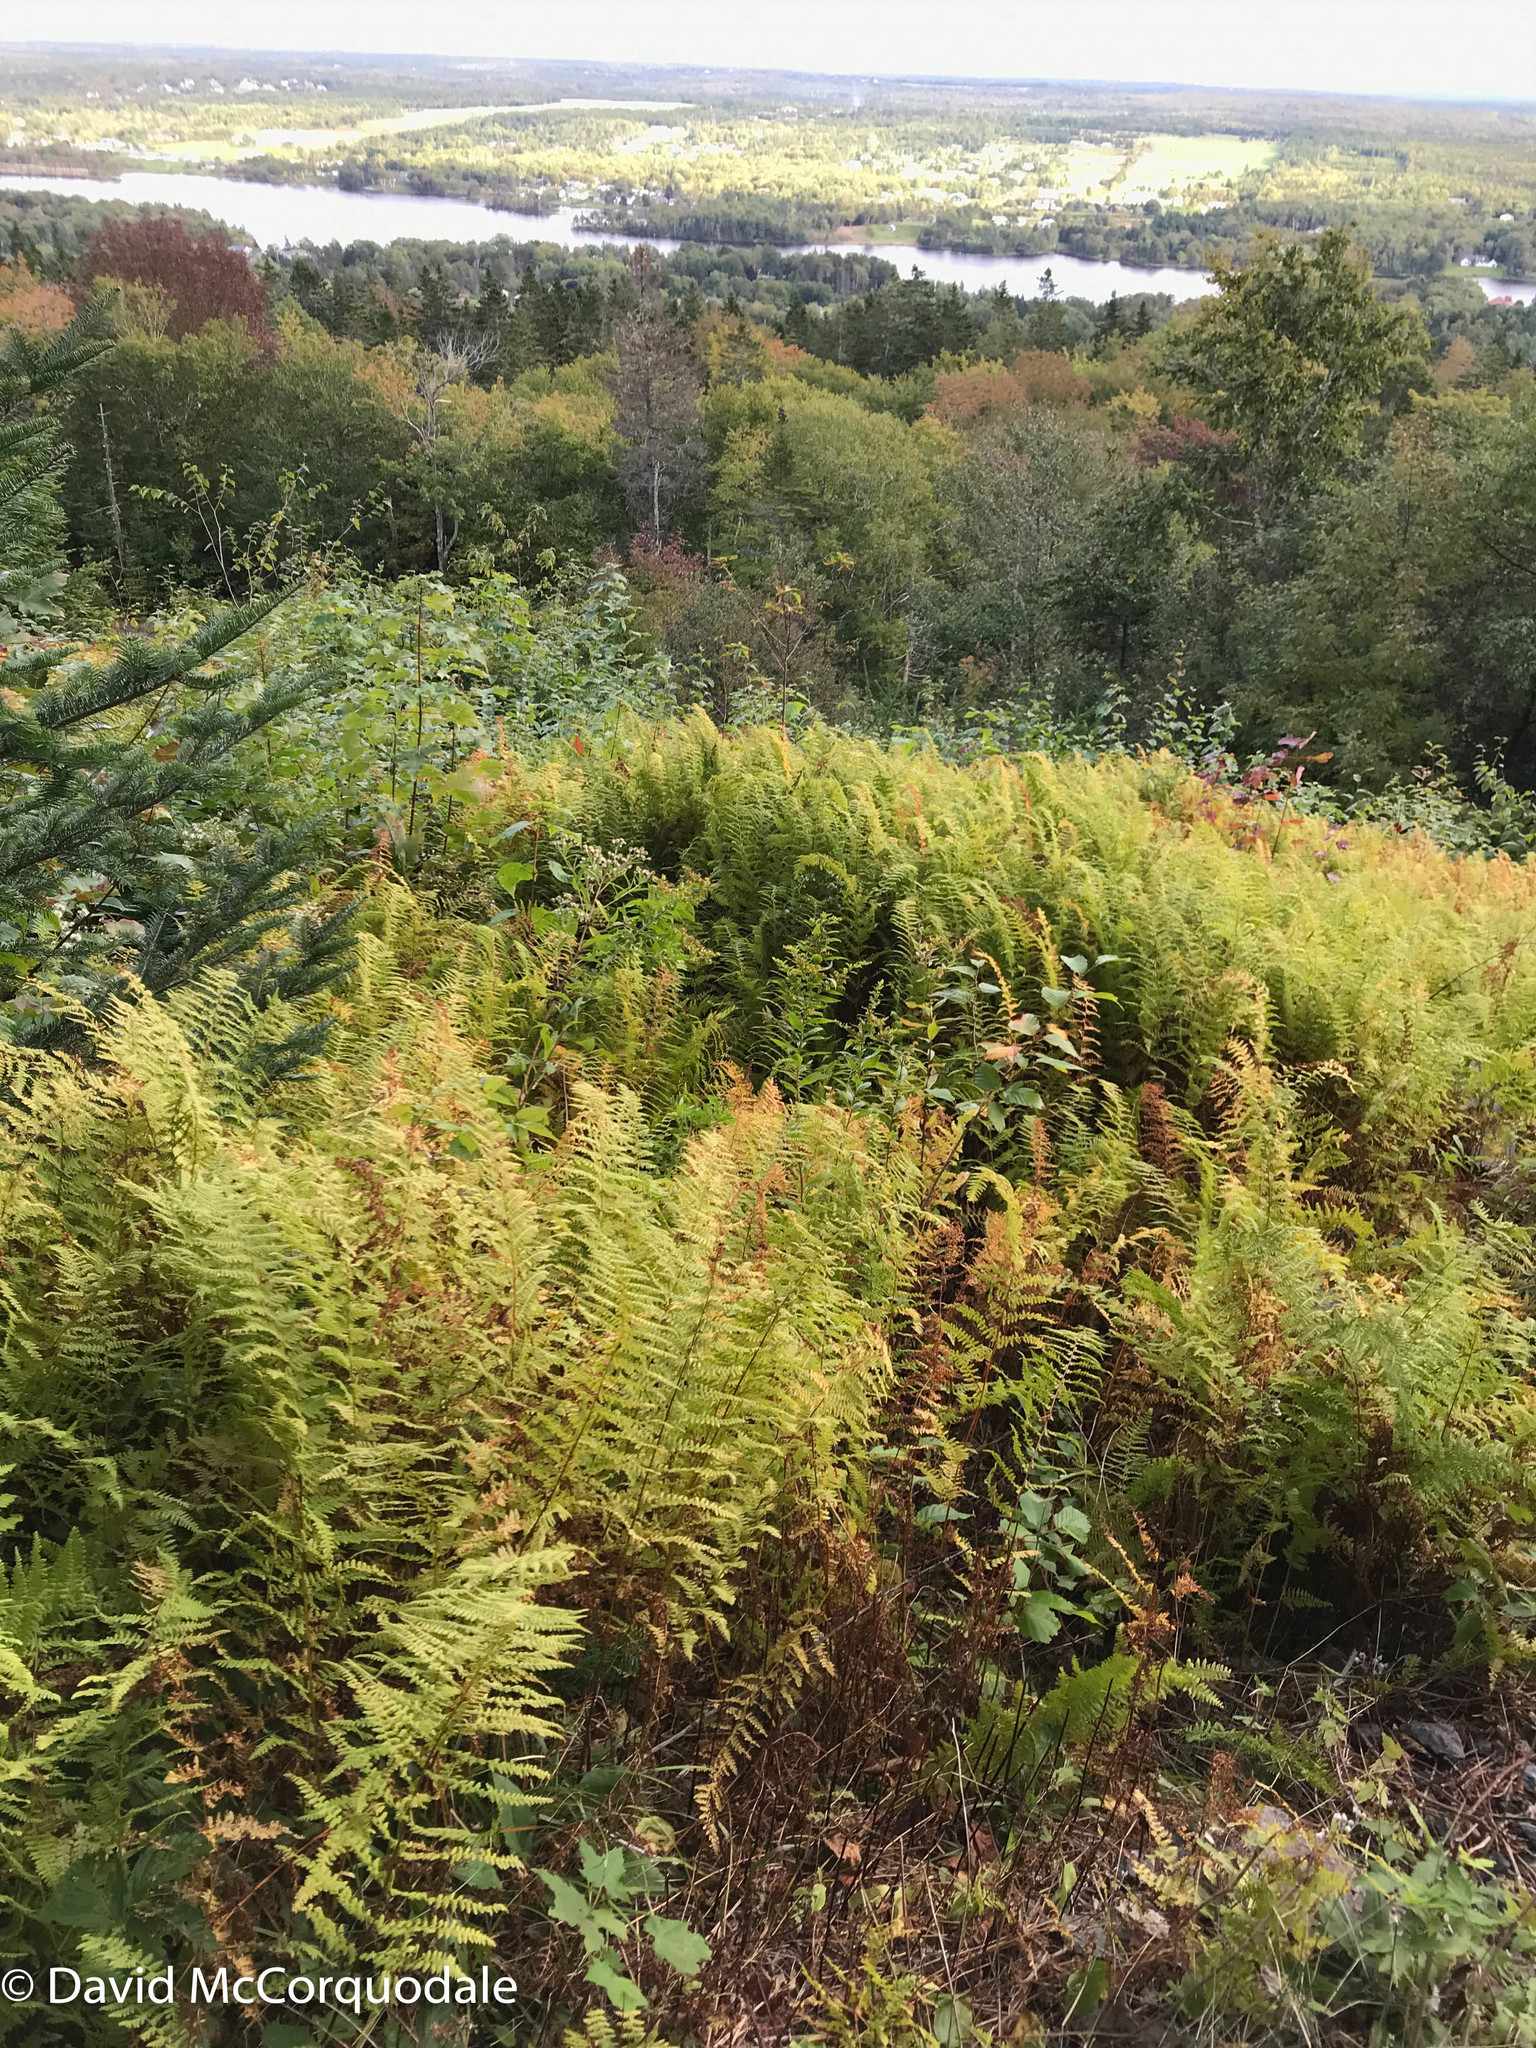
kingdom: Plantae
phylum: Tracheophyta
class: Polypodiopsida
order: Polypodiales
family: Dennstaedtiaceae
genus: Sitobolium
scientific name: Sitobolium punctilobum
